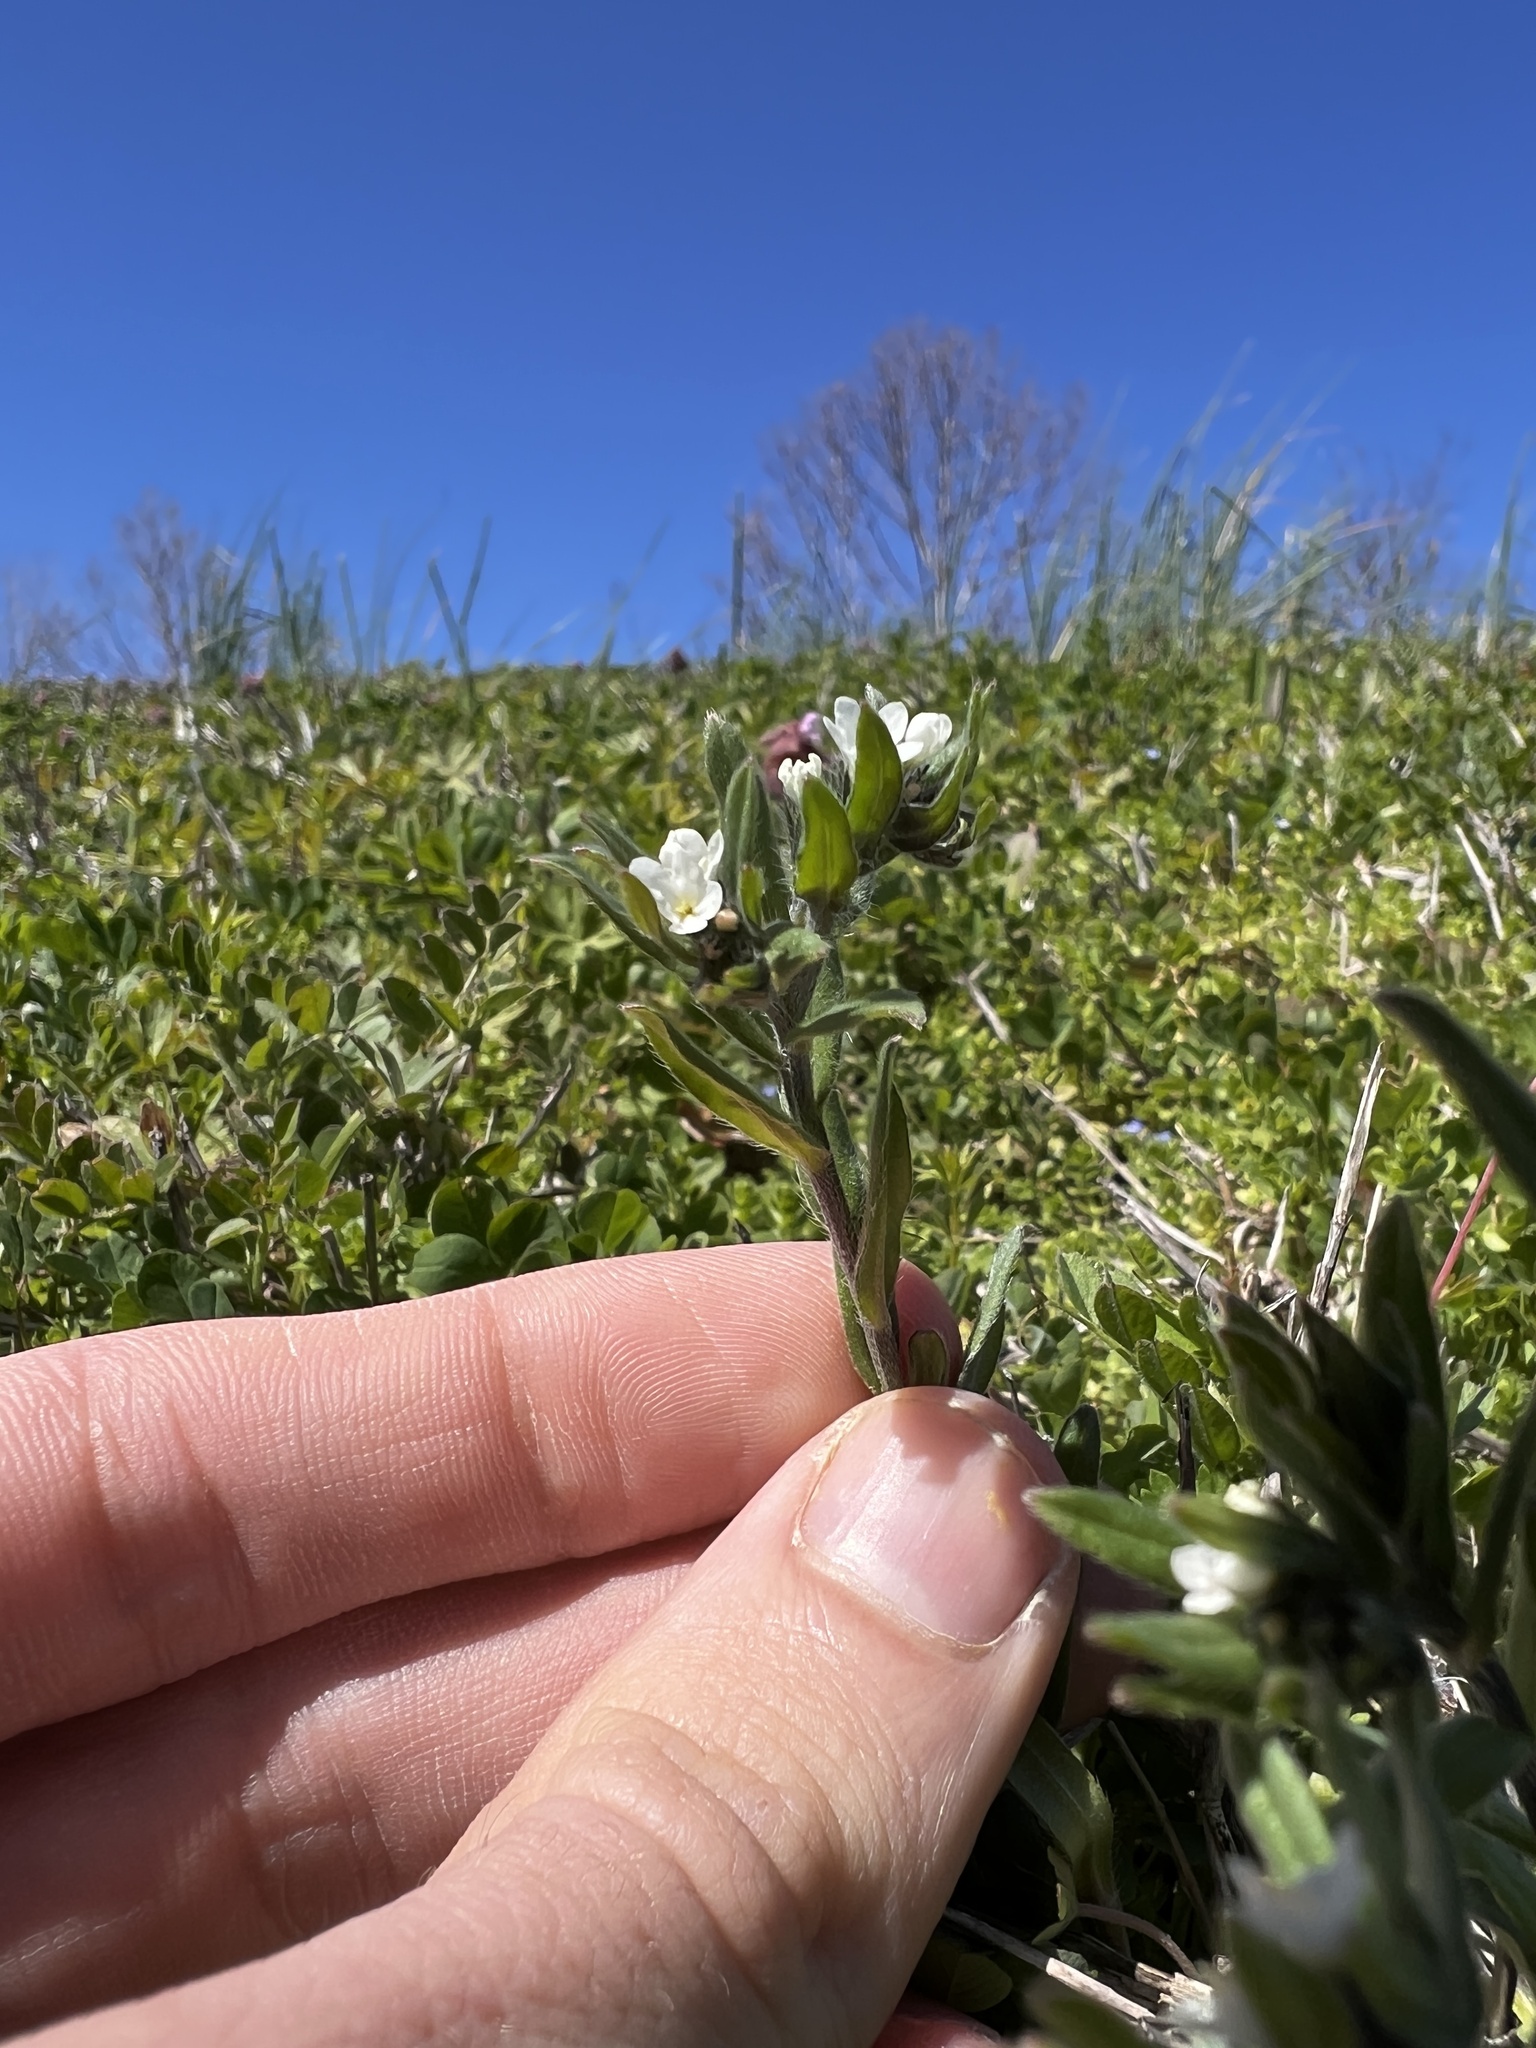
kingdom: Plantae
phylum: Tracheophyta
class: Magnoliopsida
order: Boraginales
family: Boraginaceae
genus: Buglossoides
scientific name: Buglossoides arvensis
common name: Corn gromwell
